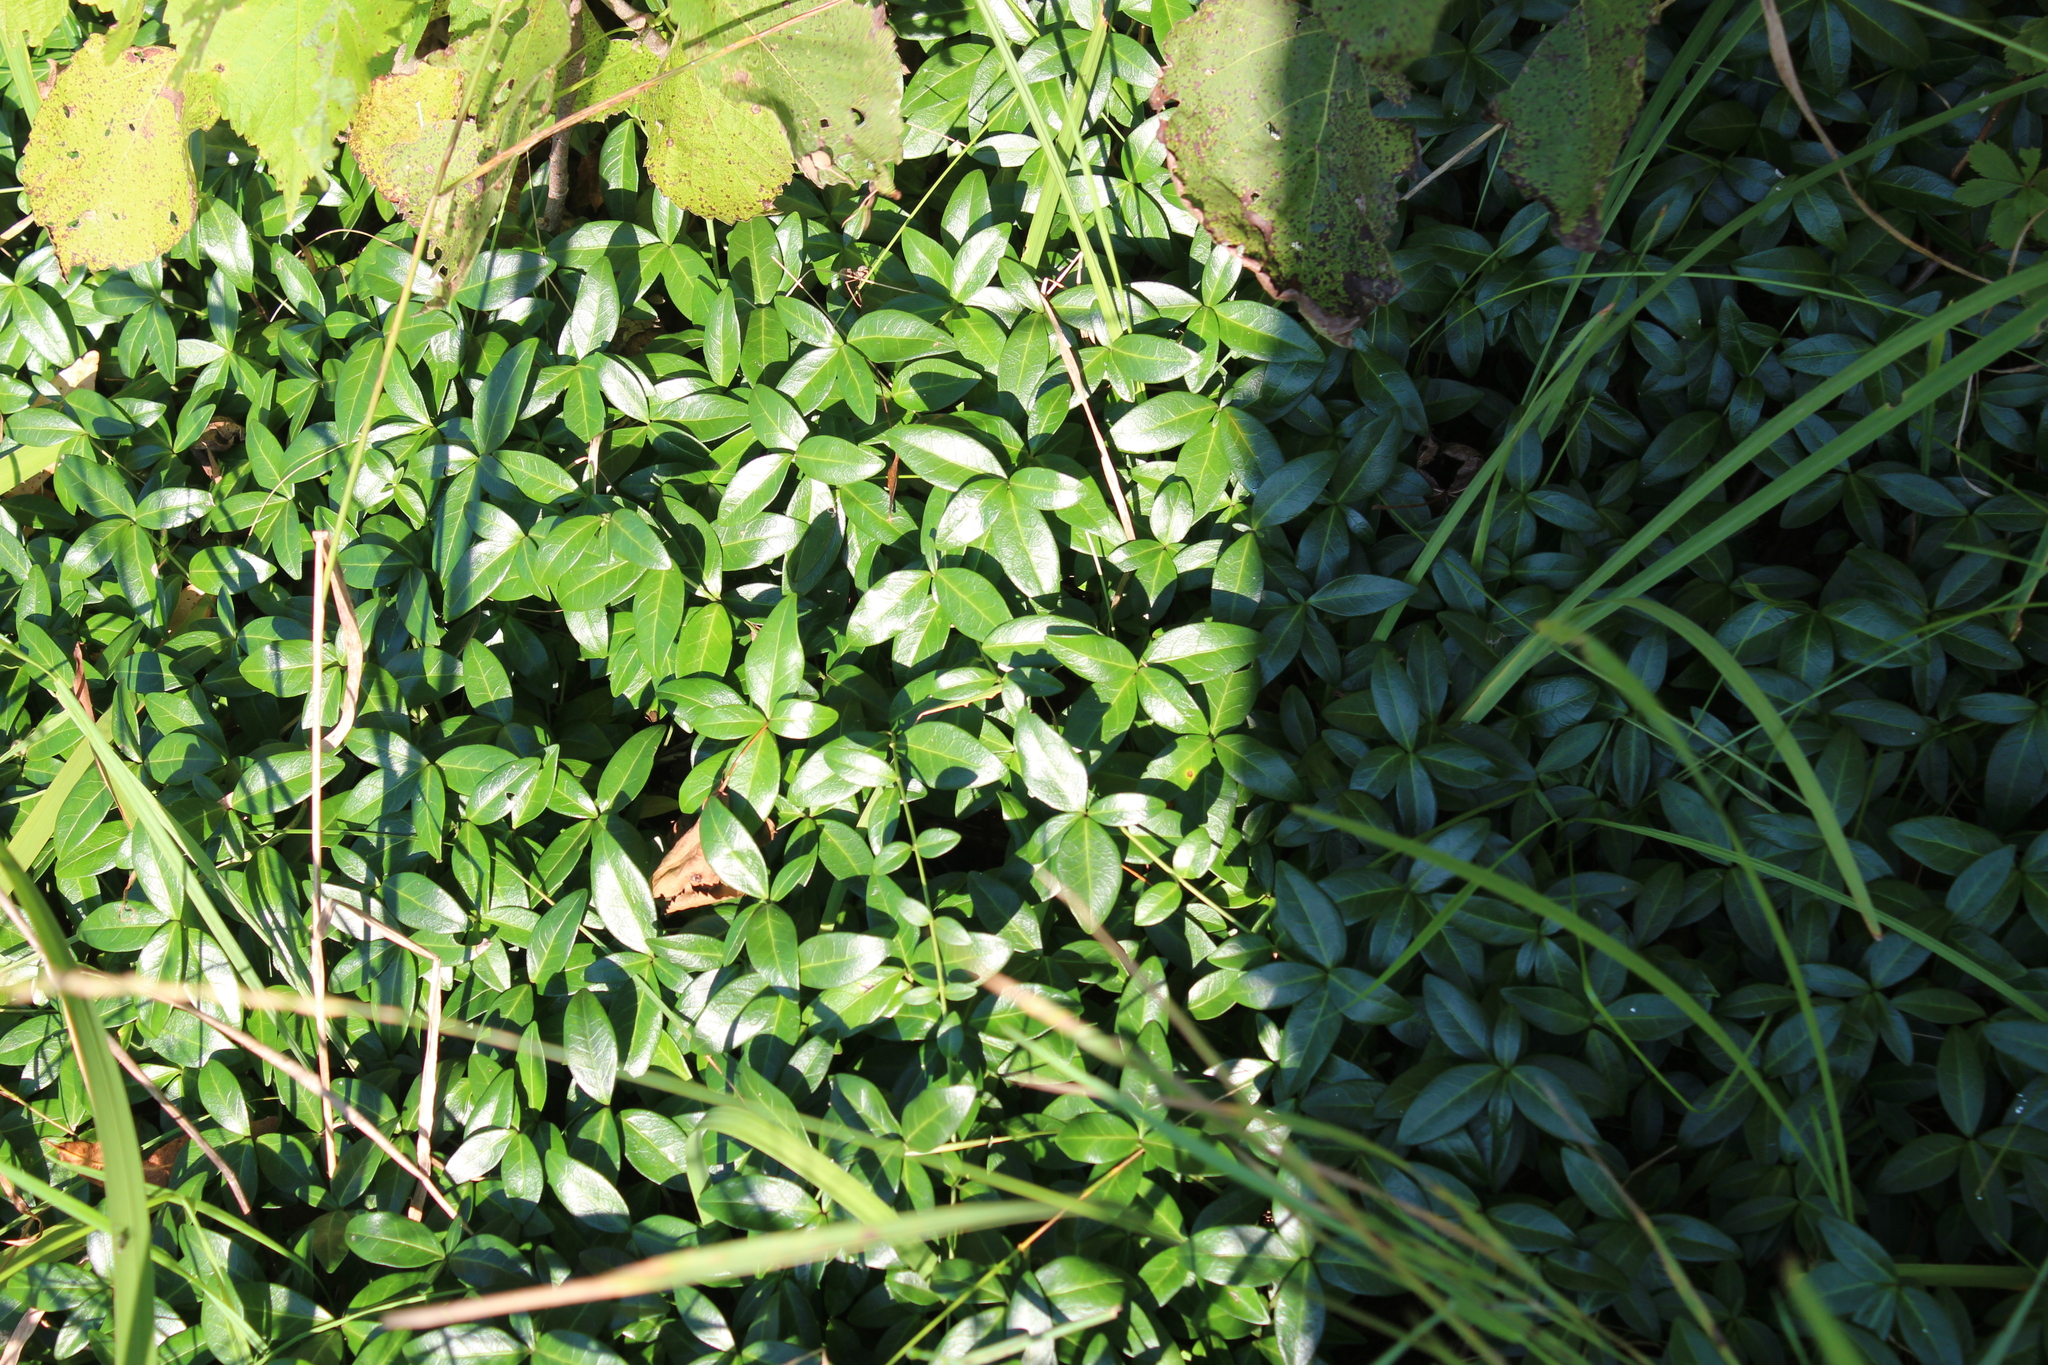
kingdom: Plantae
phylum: Tracheophyta
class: Magnoliopsida
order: Gentianales
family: Apocynaceae
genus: Vinca
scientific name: Vinca minor
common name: Lesser periwinkle
